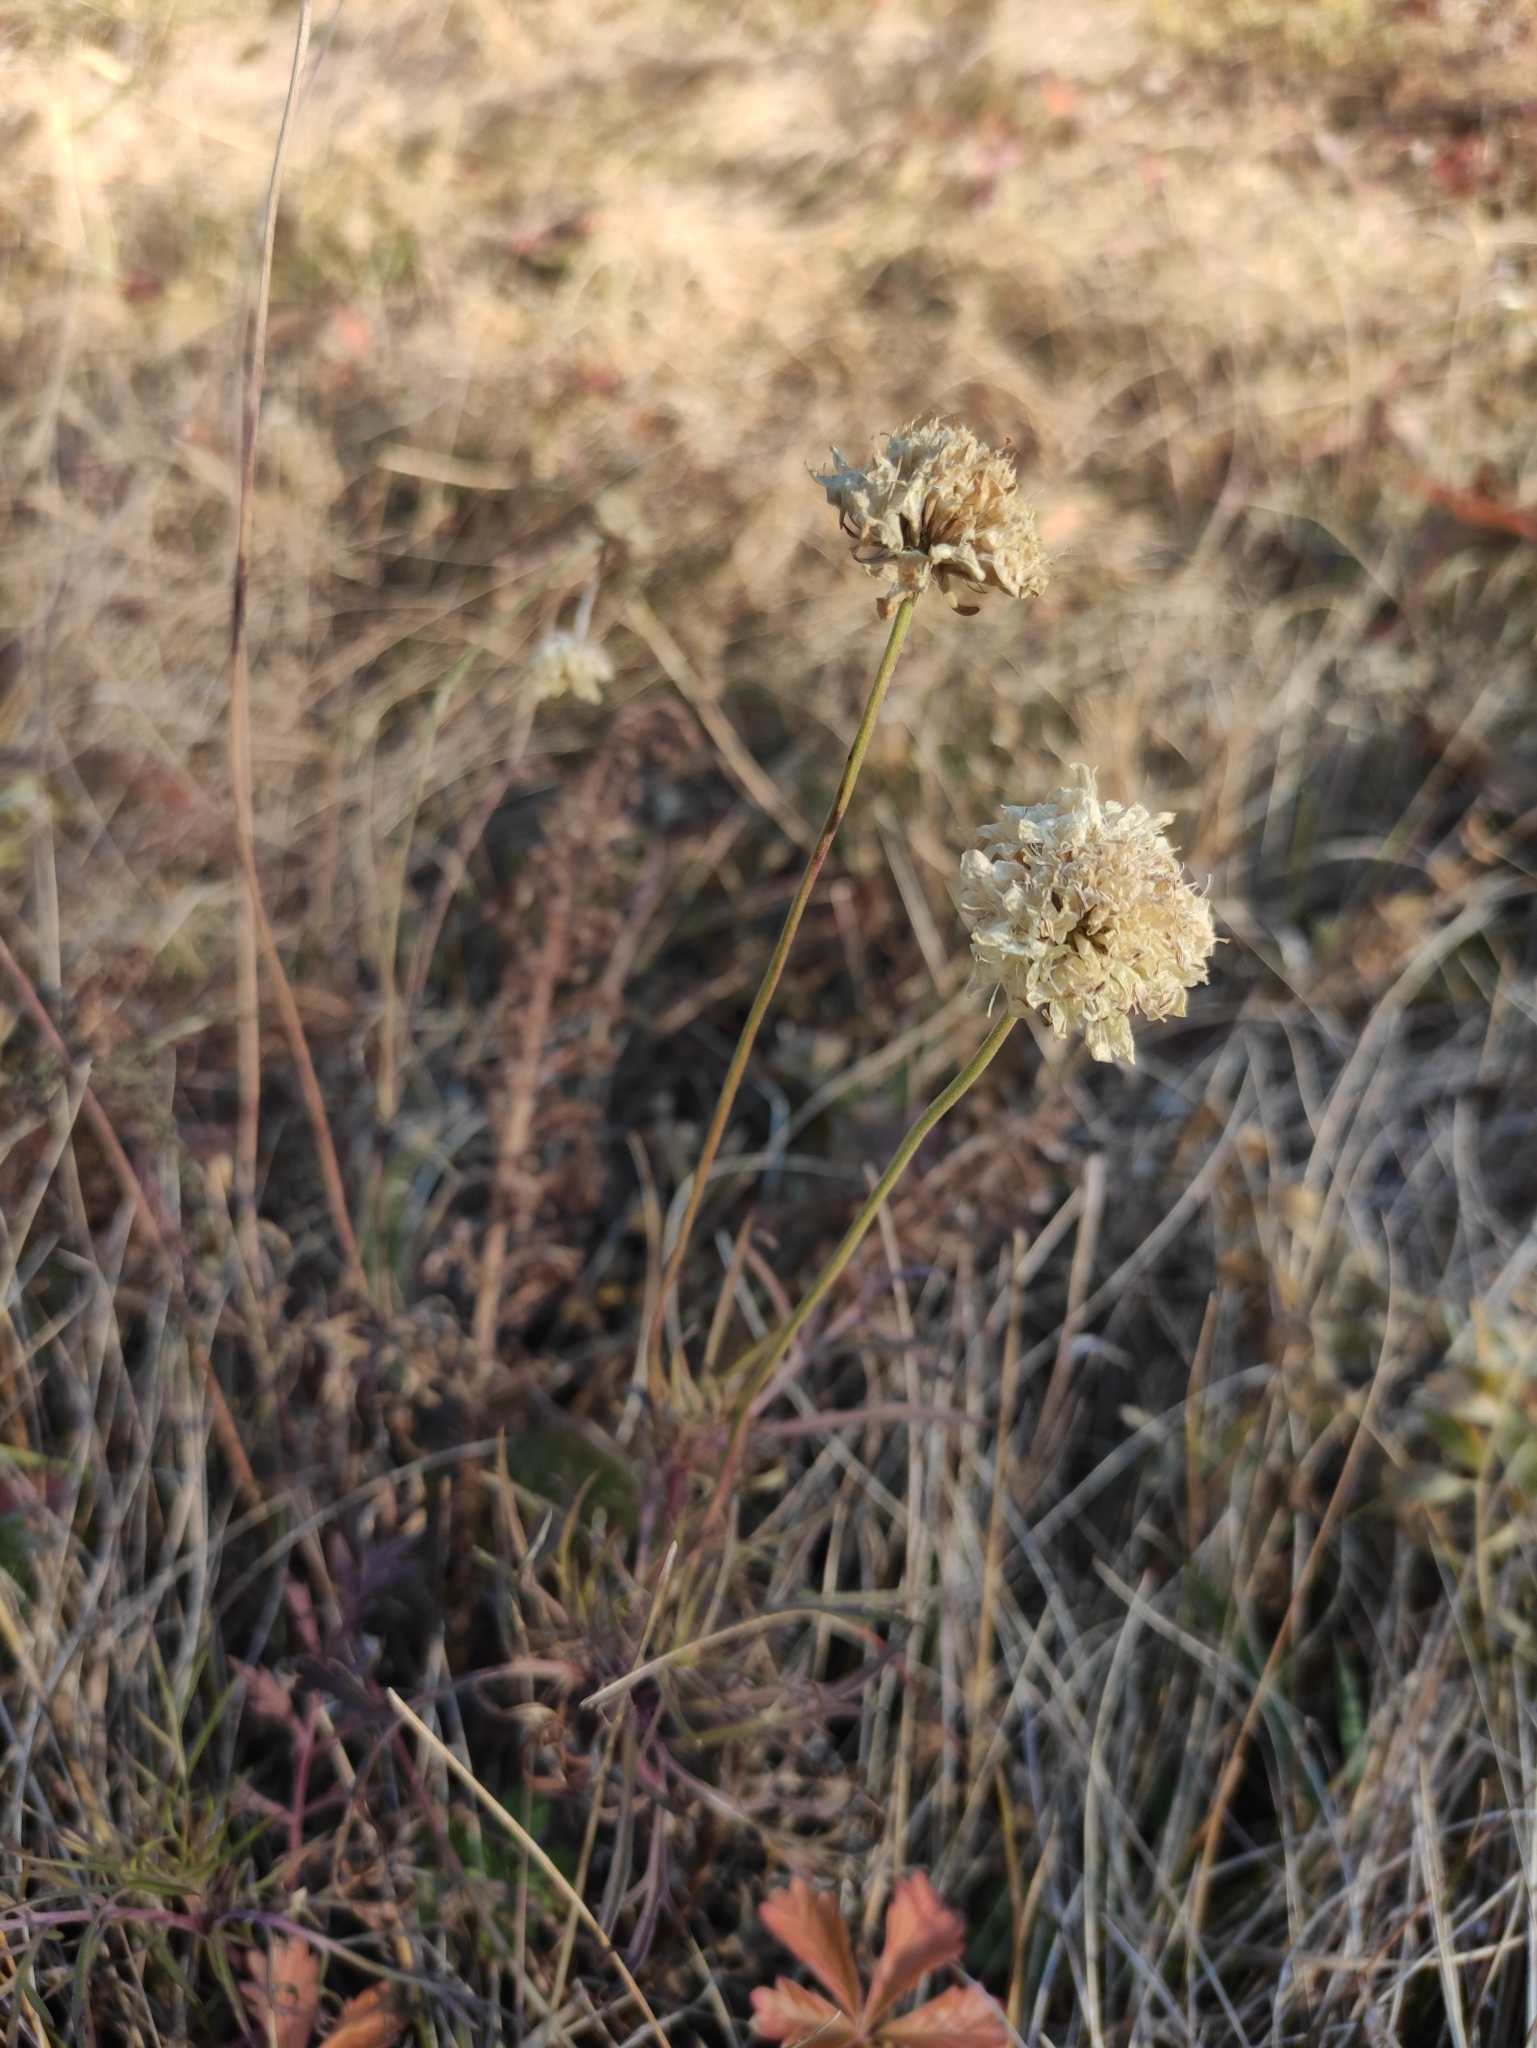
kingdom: Plantae
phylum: Tracheophyta
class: Magnoliopsida
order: Dipsacales
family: Caprifoliaceae
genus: Scabiosa
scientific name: Scabiosa ochroleuca
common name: Cream pincushions
